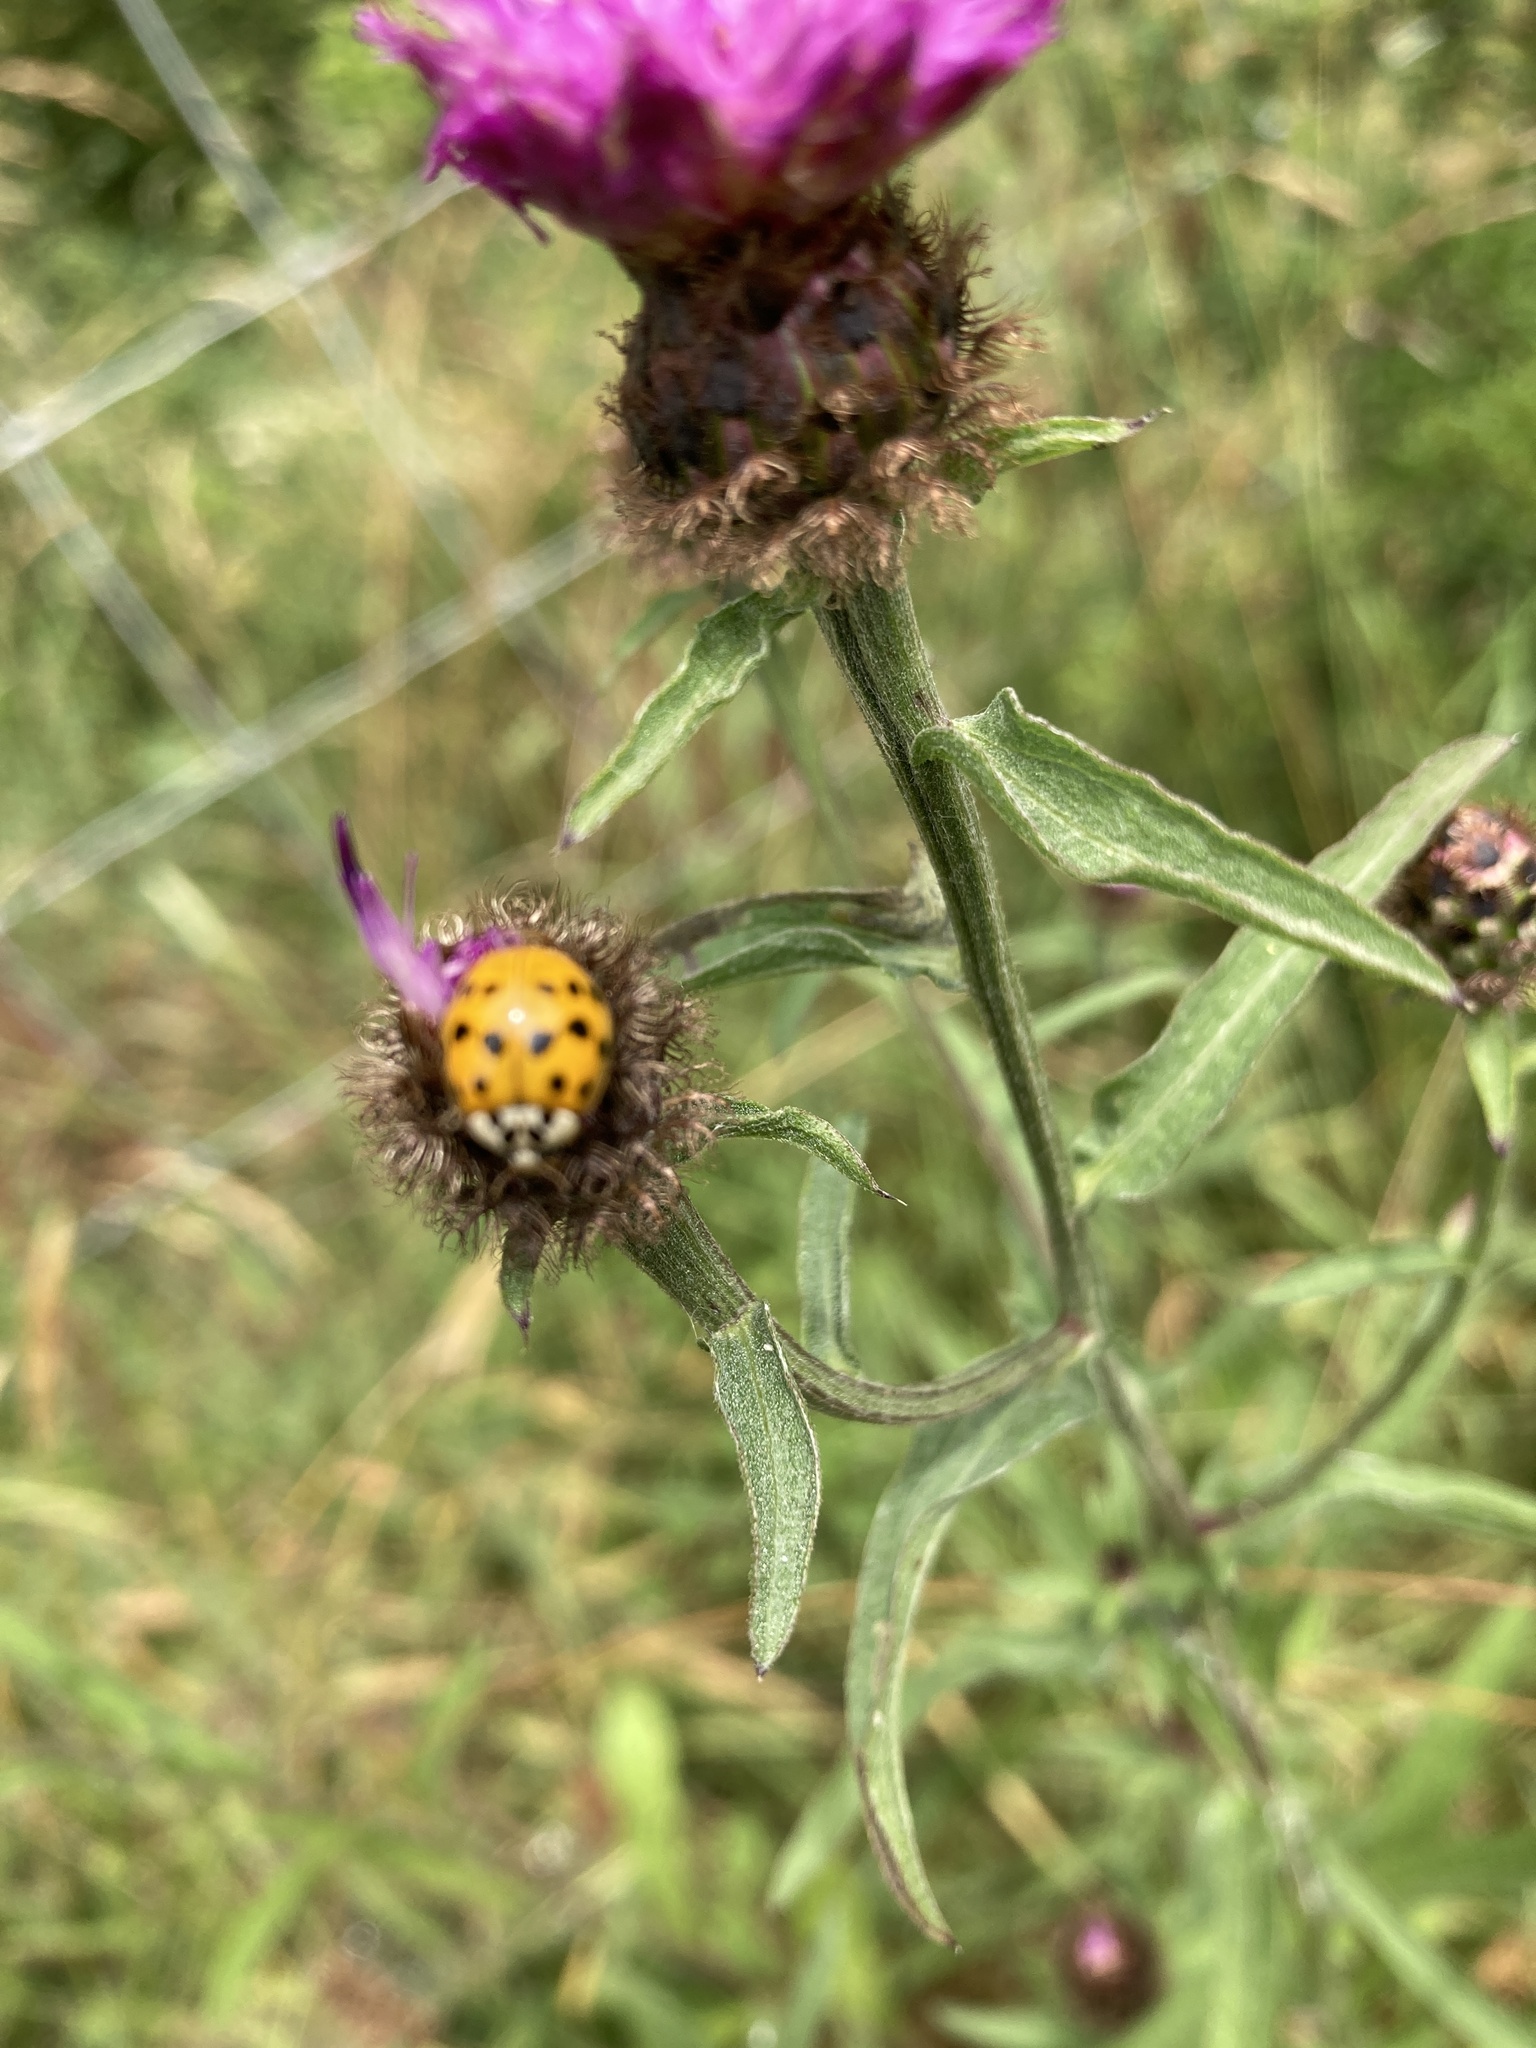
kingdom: Animalia
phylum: Arthropoda
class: Insecta
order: Coleoptera
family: Coccinellidae
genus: Harmonia
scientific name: Harmonia axyridis
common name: Harlequin ladybird
